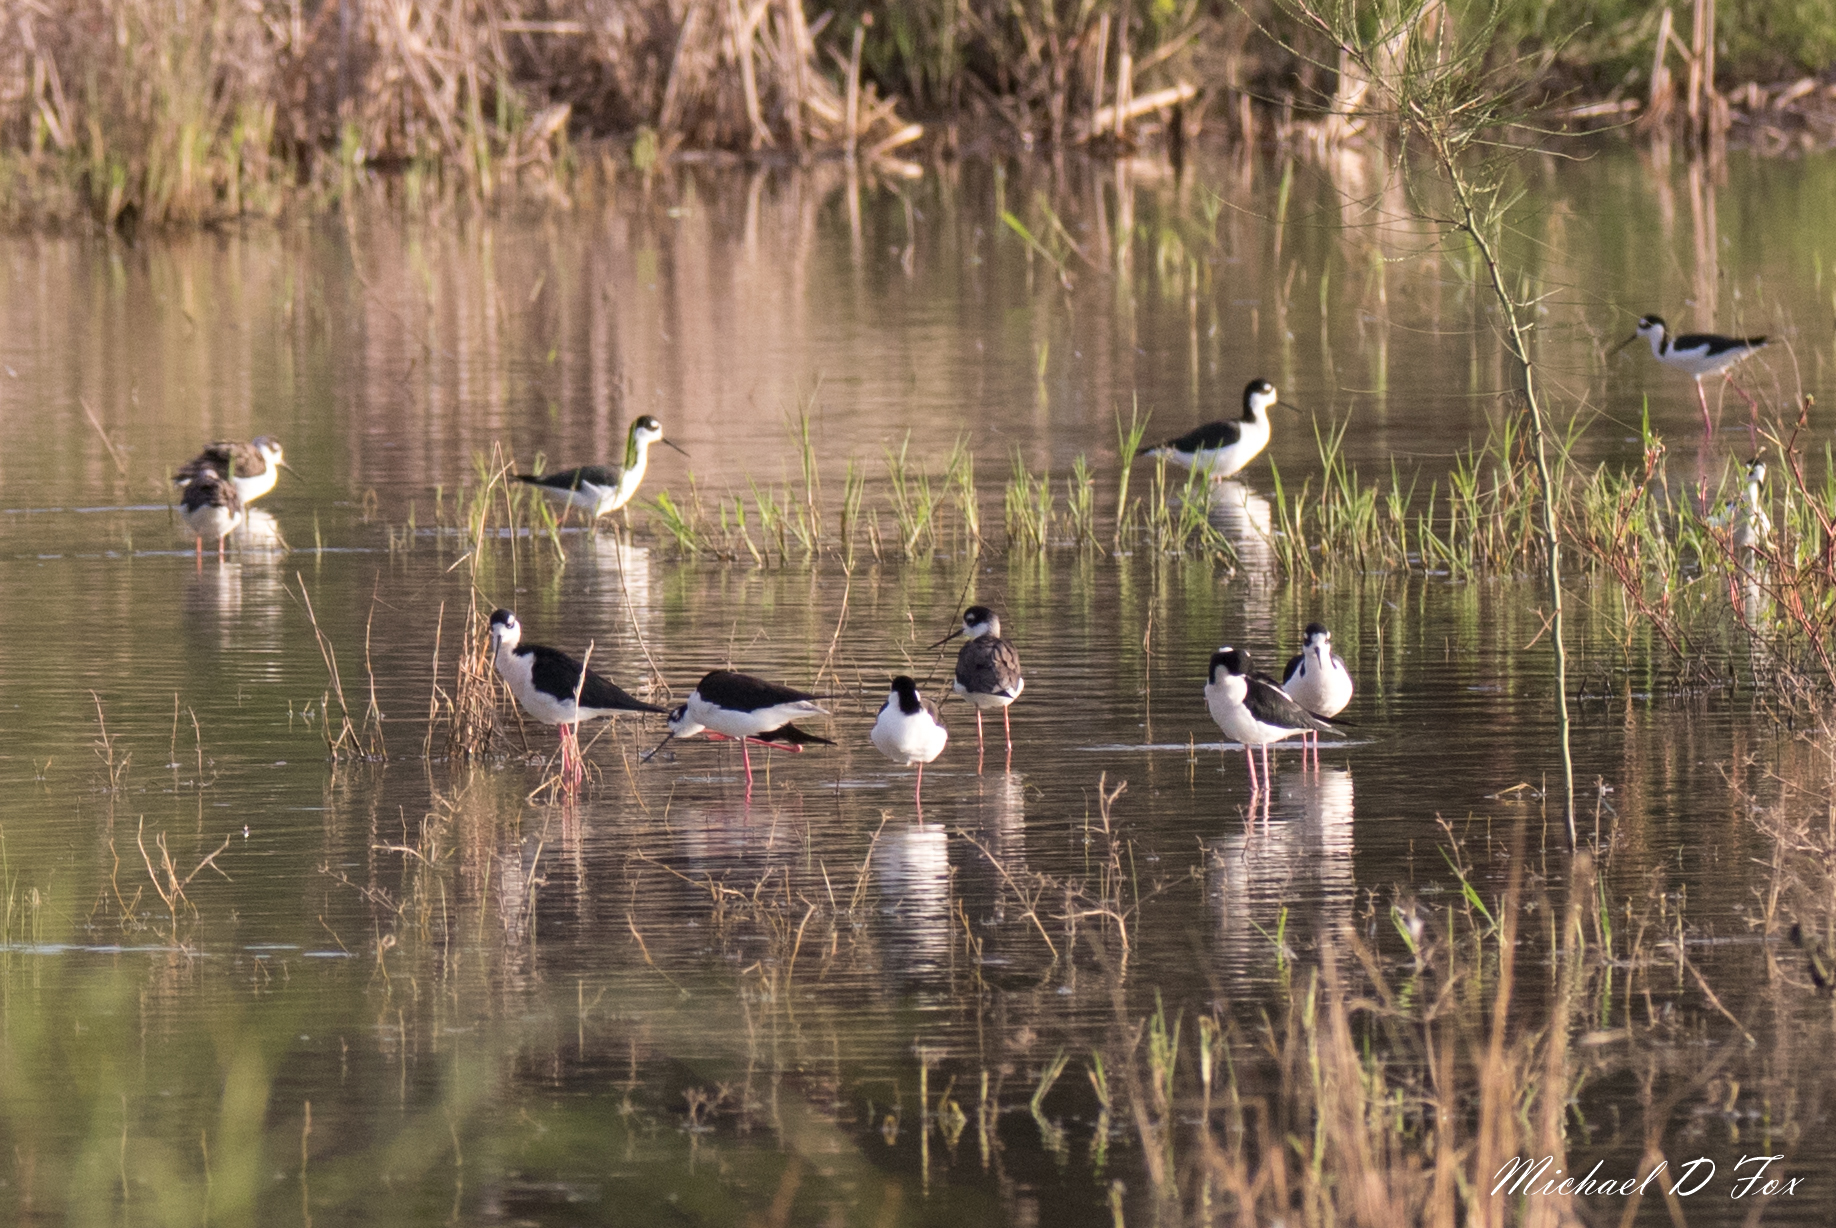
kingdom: Animalia
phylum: Chordata
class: Aves
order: Charadriiformes
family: Recurvirostridae
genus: Himantopus
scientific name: Himantopus mexicanus
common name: Black-necked stilt
